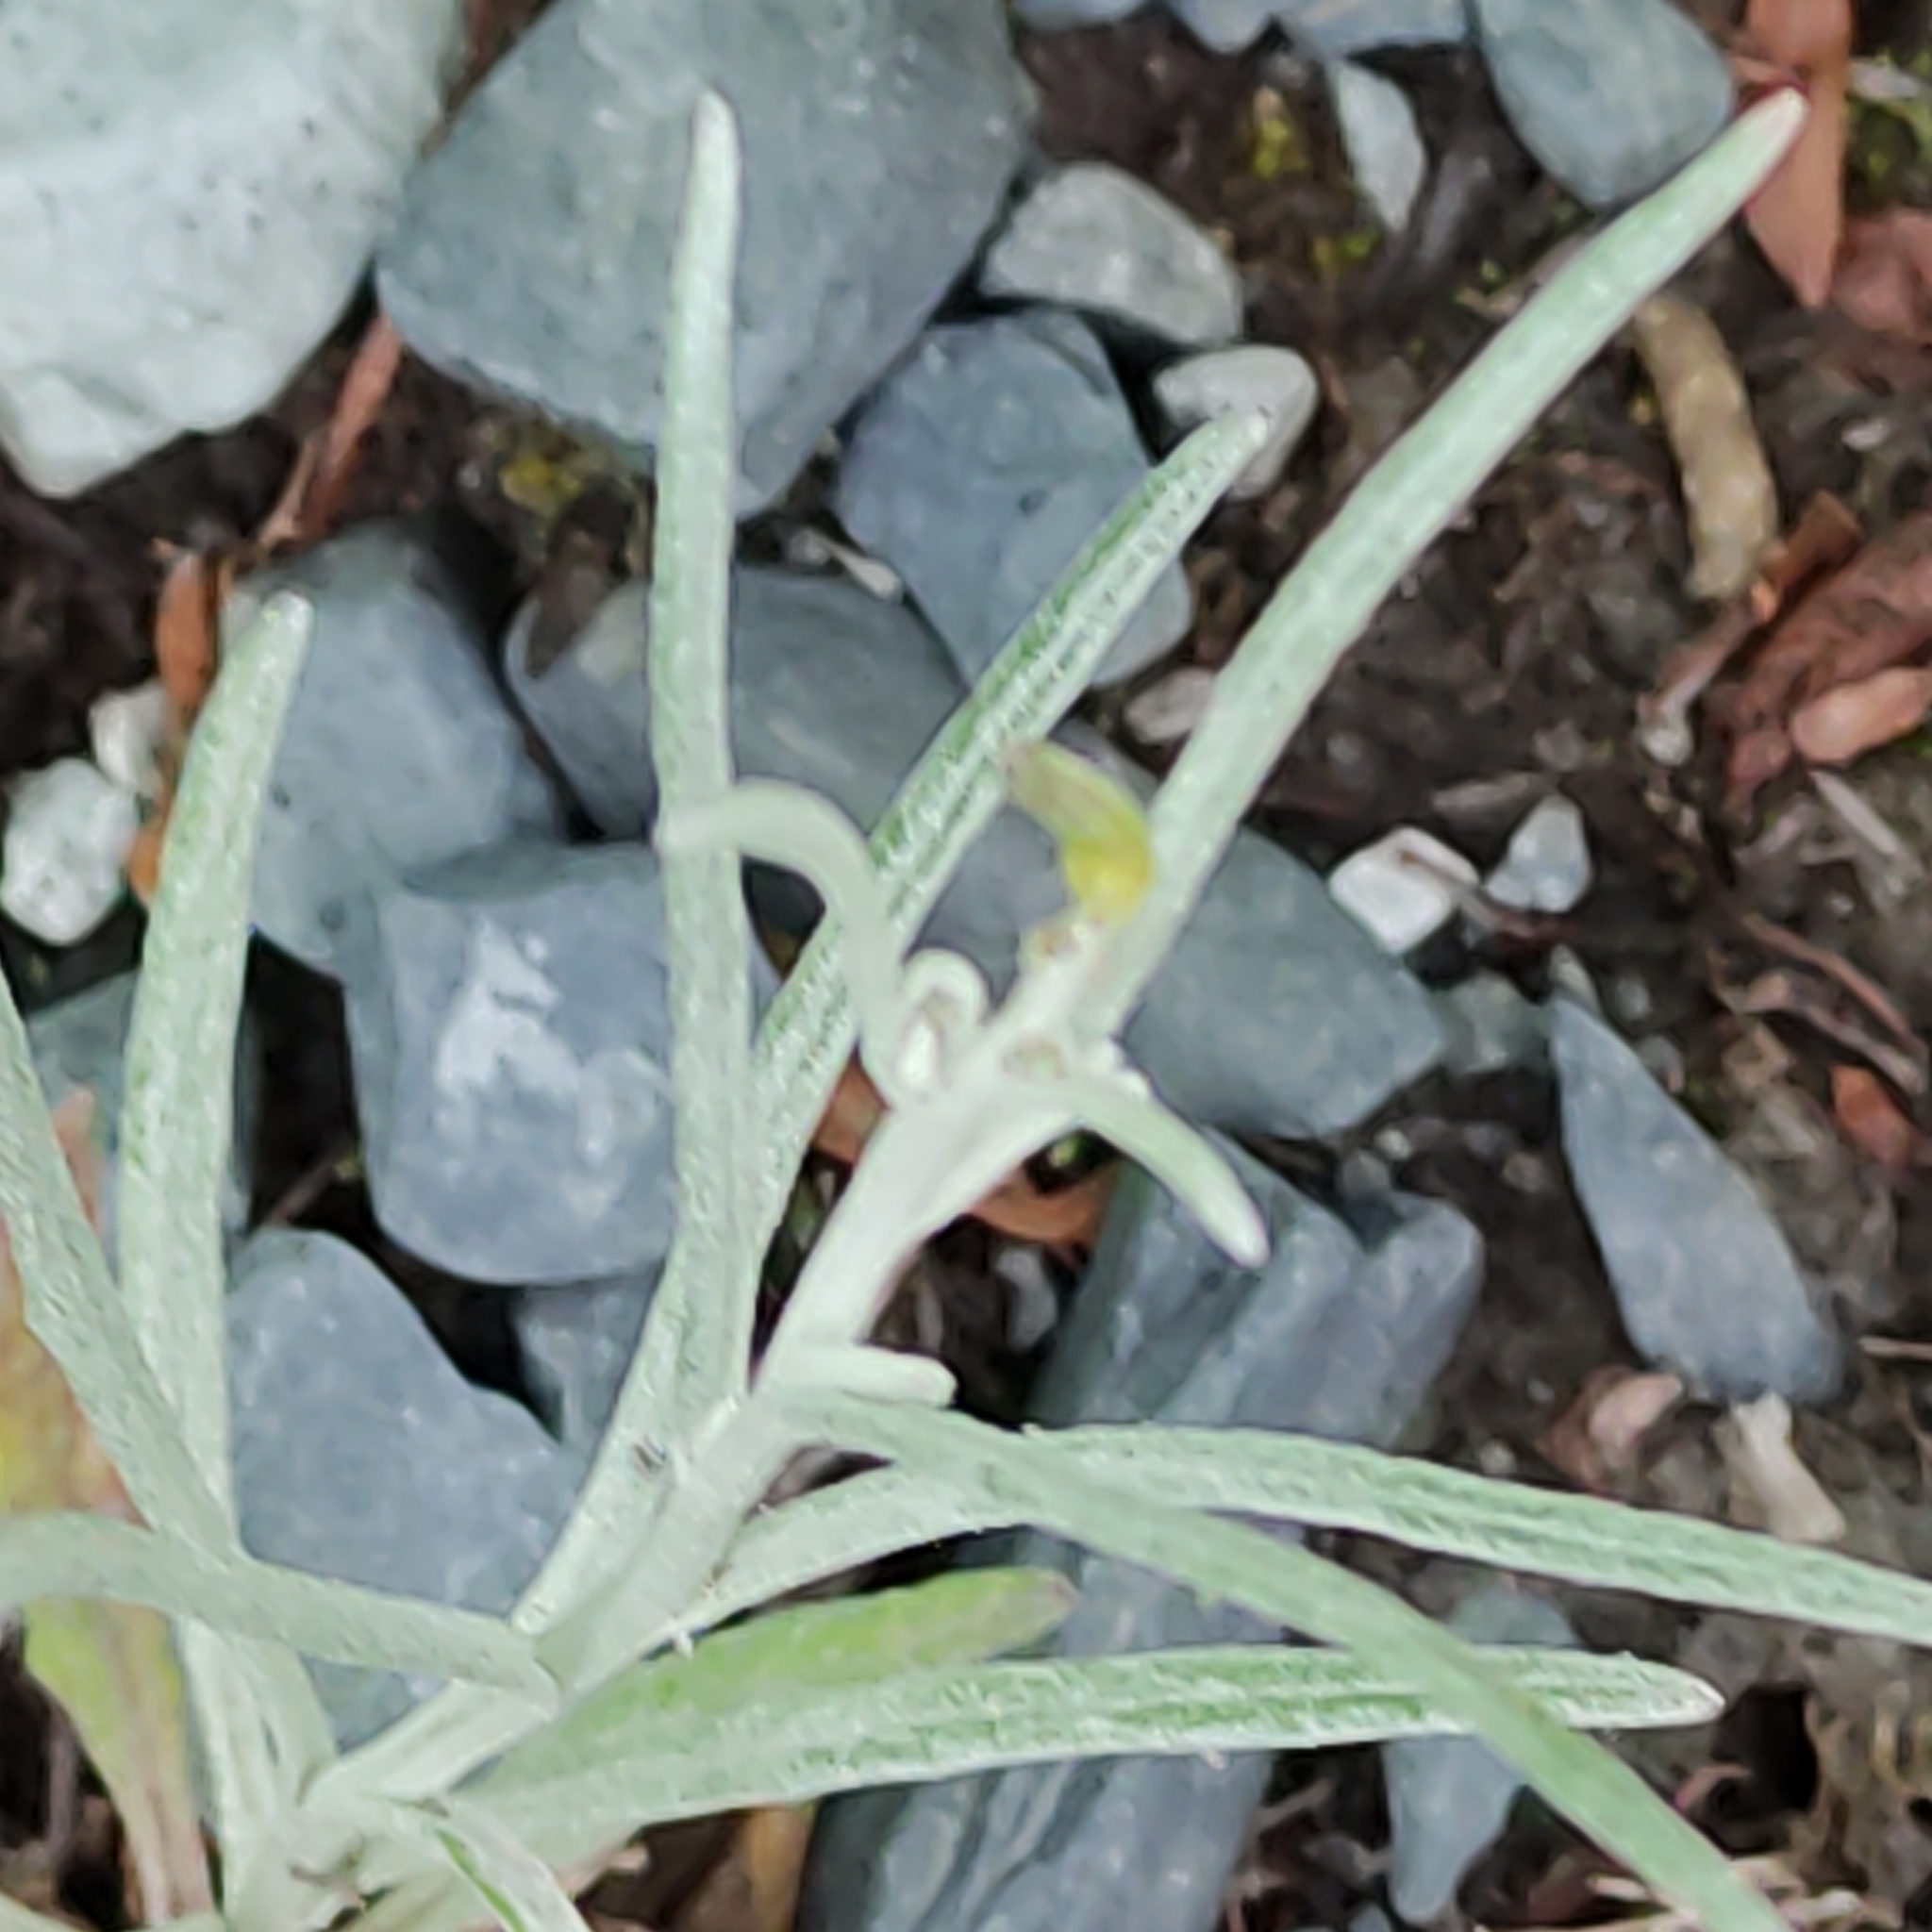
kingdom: Plantae
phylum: Tracheophyta
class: Magnoliopsida
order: Asterales
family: Asteraceae
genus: Senecio
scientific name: Senecio quadridentatus
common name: Cotton fireweed
